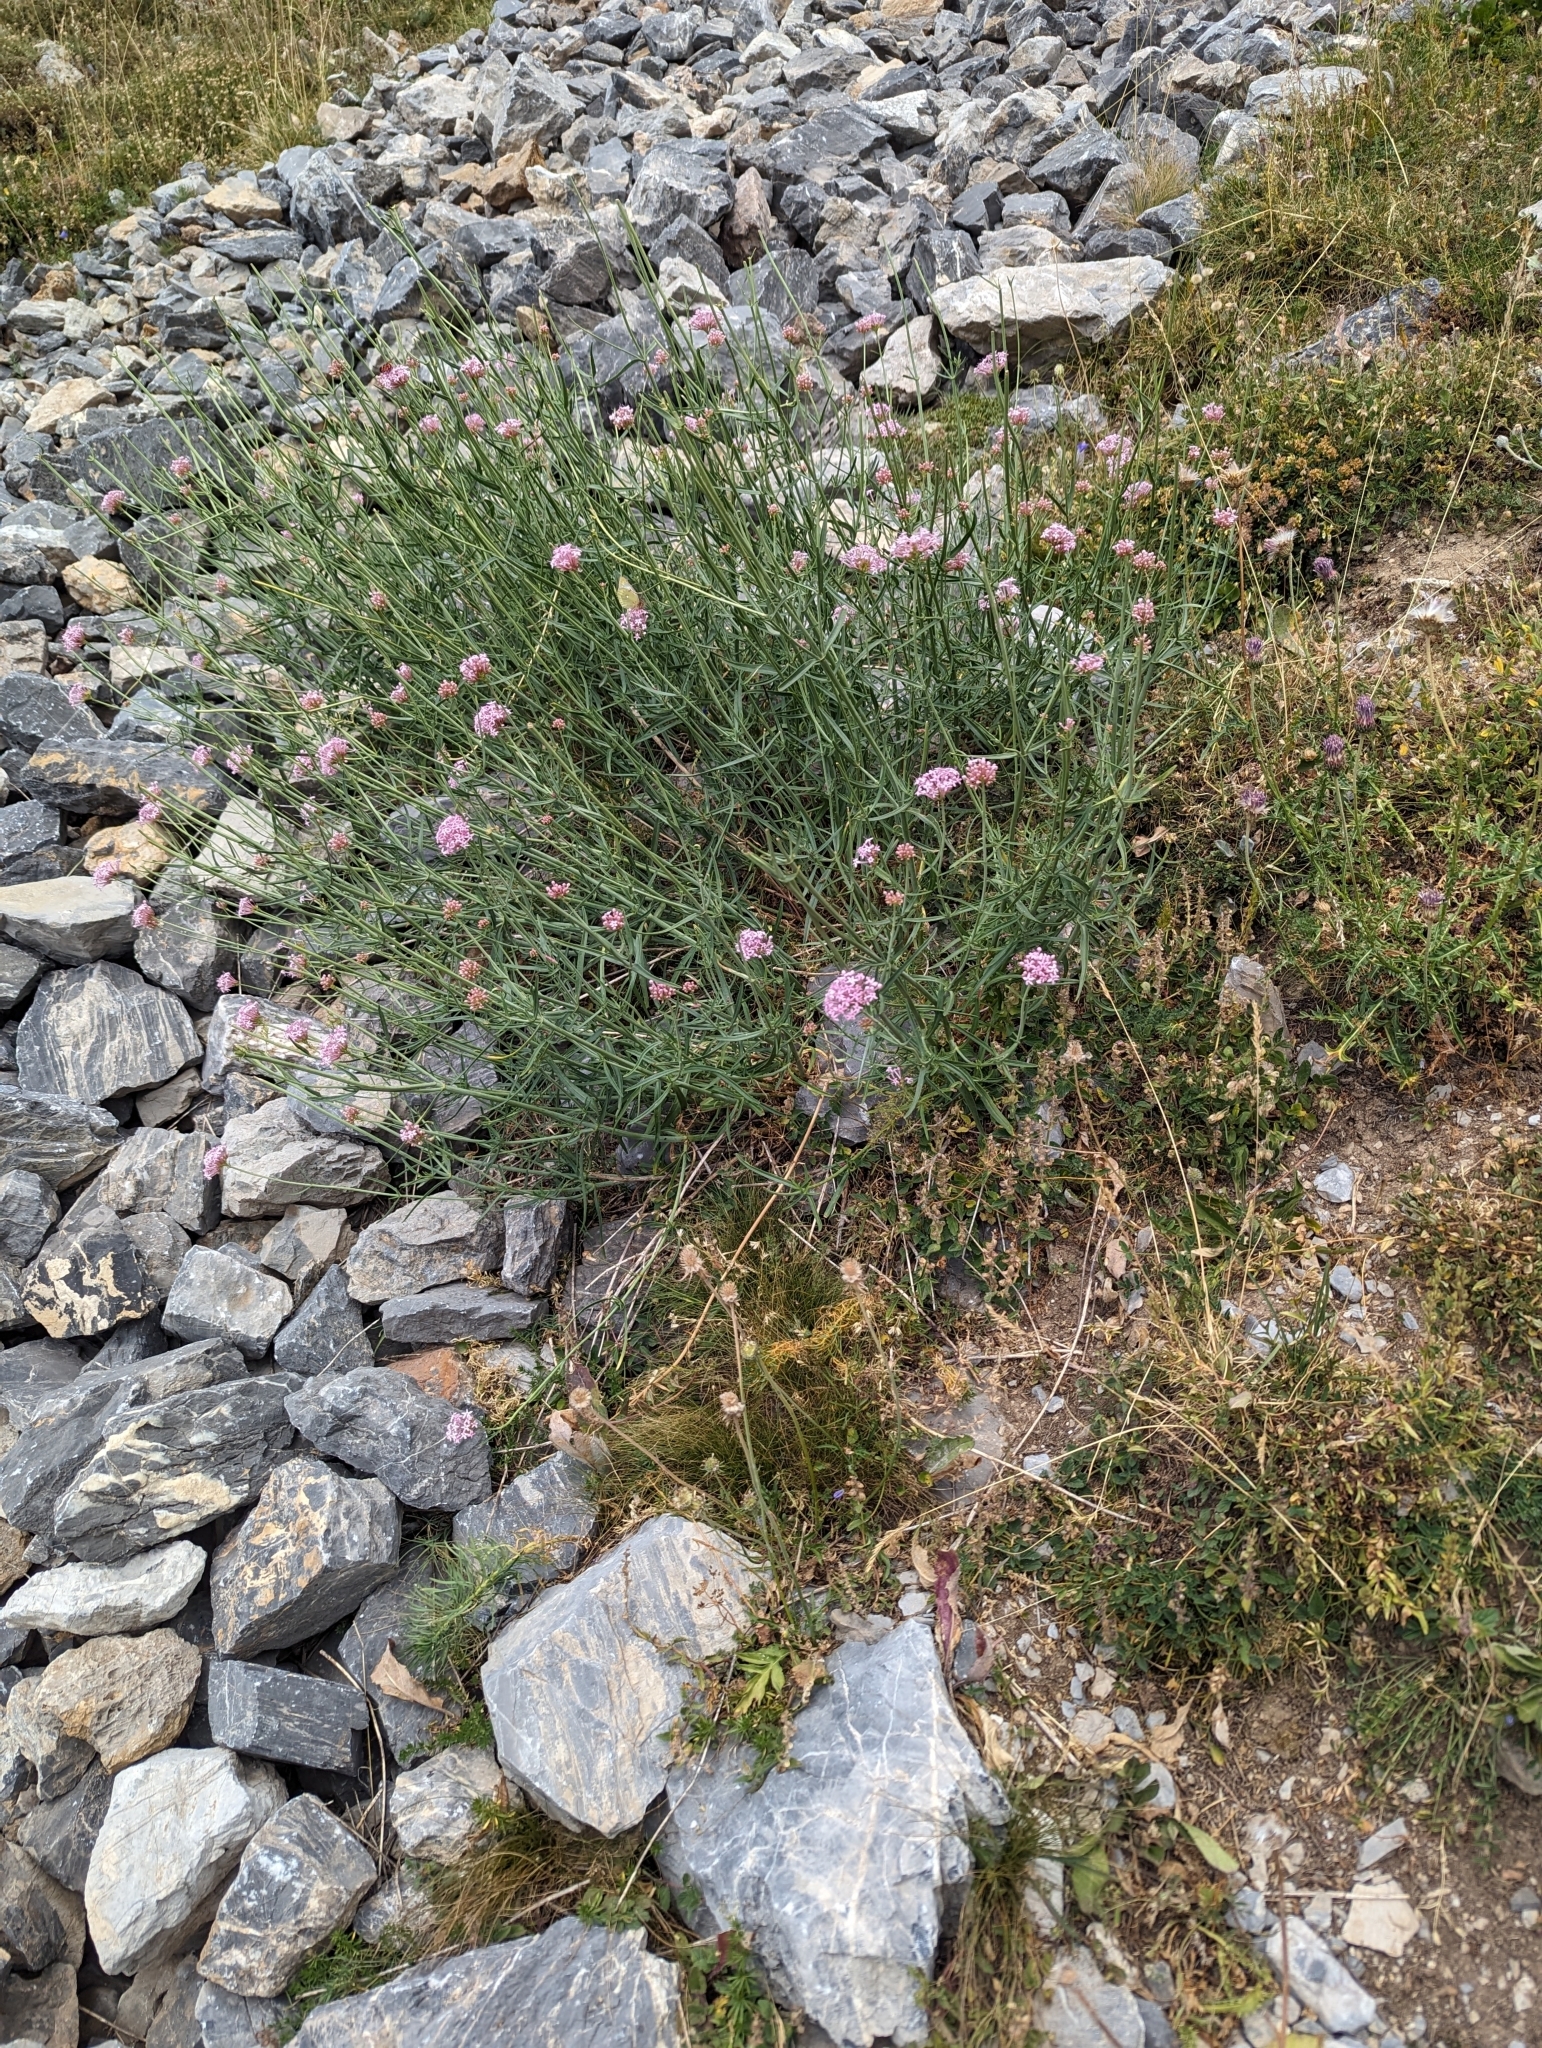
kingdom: Plantae
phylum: Tracheophyta
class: Magnoliopsida
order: Dipsacales
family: Caprifoliaceae
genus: Centranthus
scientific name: Centranthus angustifolius
